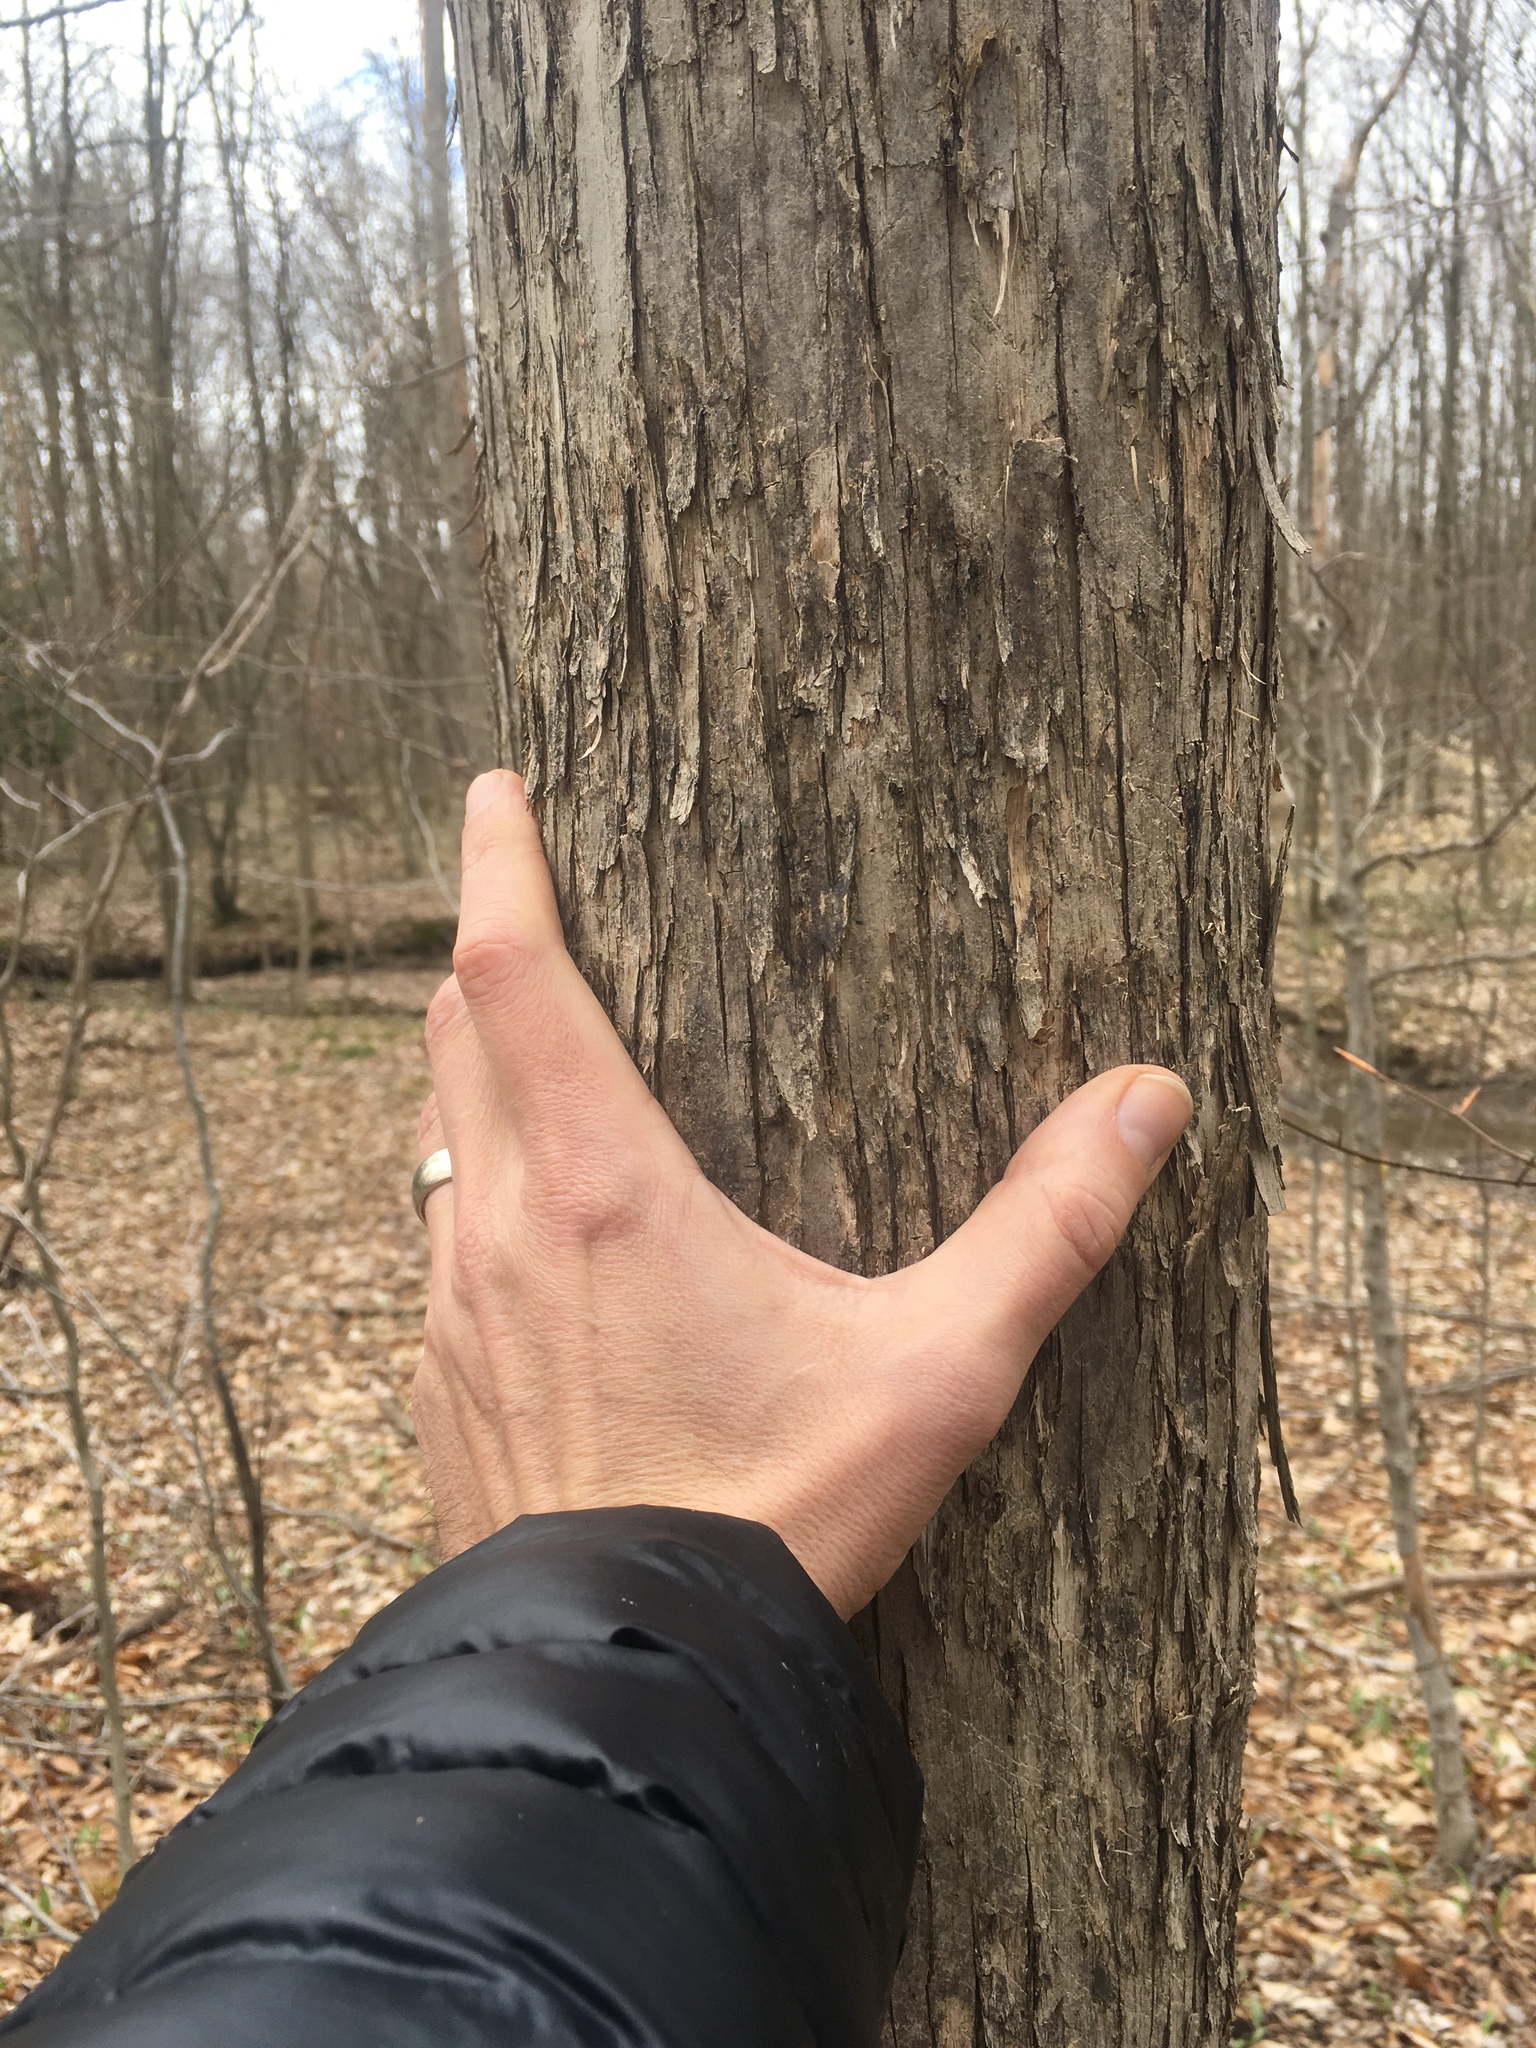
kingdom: Plantae
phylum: Tracheophyta
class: Magnoliopsida
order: Fagales
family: Betulaceae
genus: Ostrya
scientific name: Ostrya virginiana
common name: Ironwood
